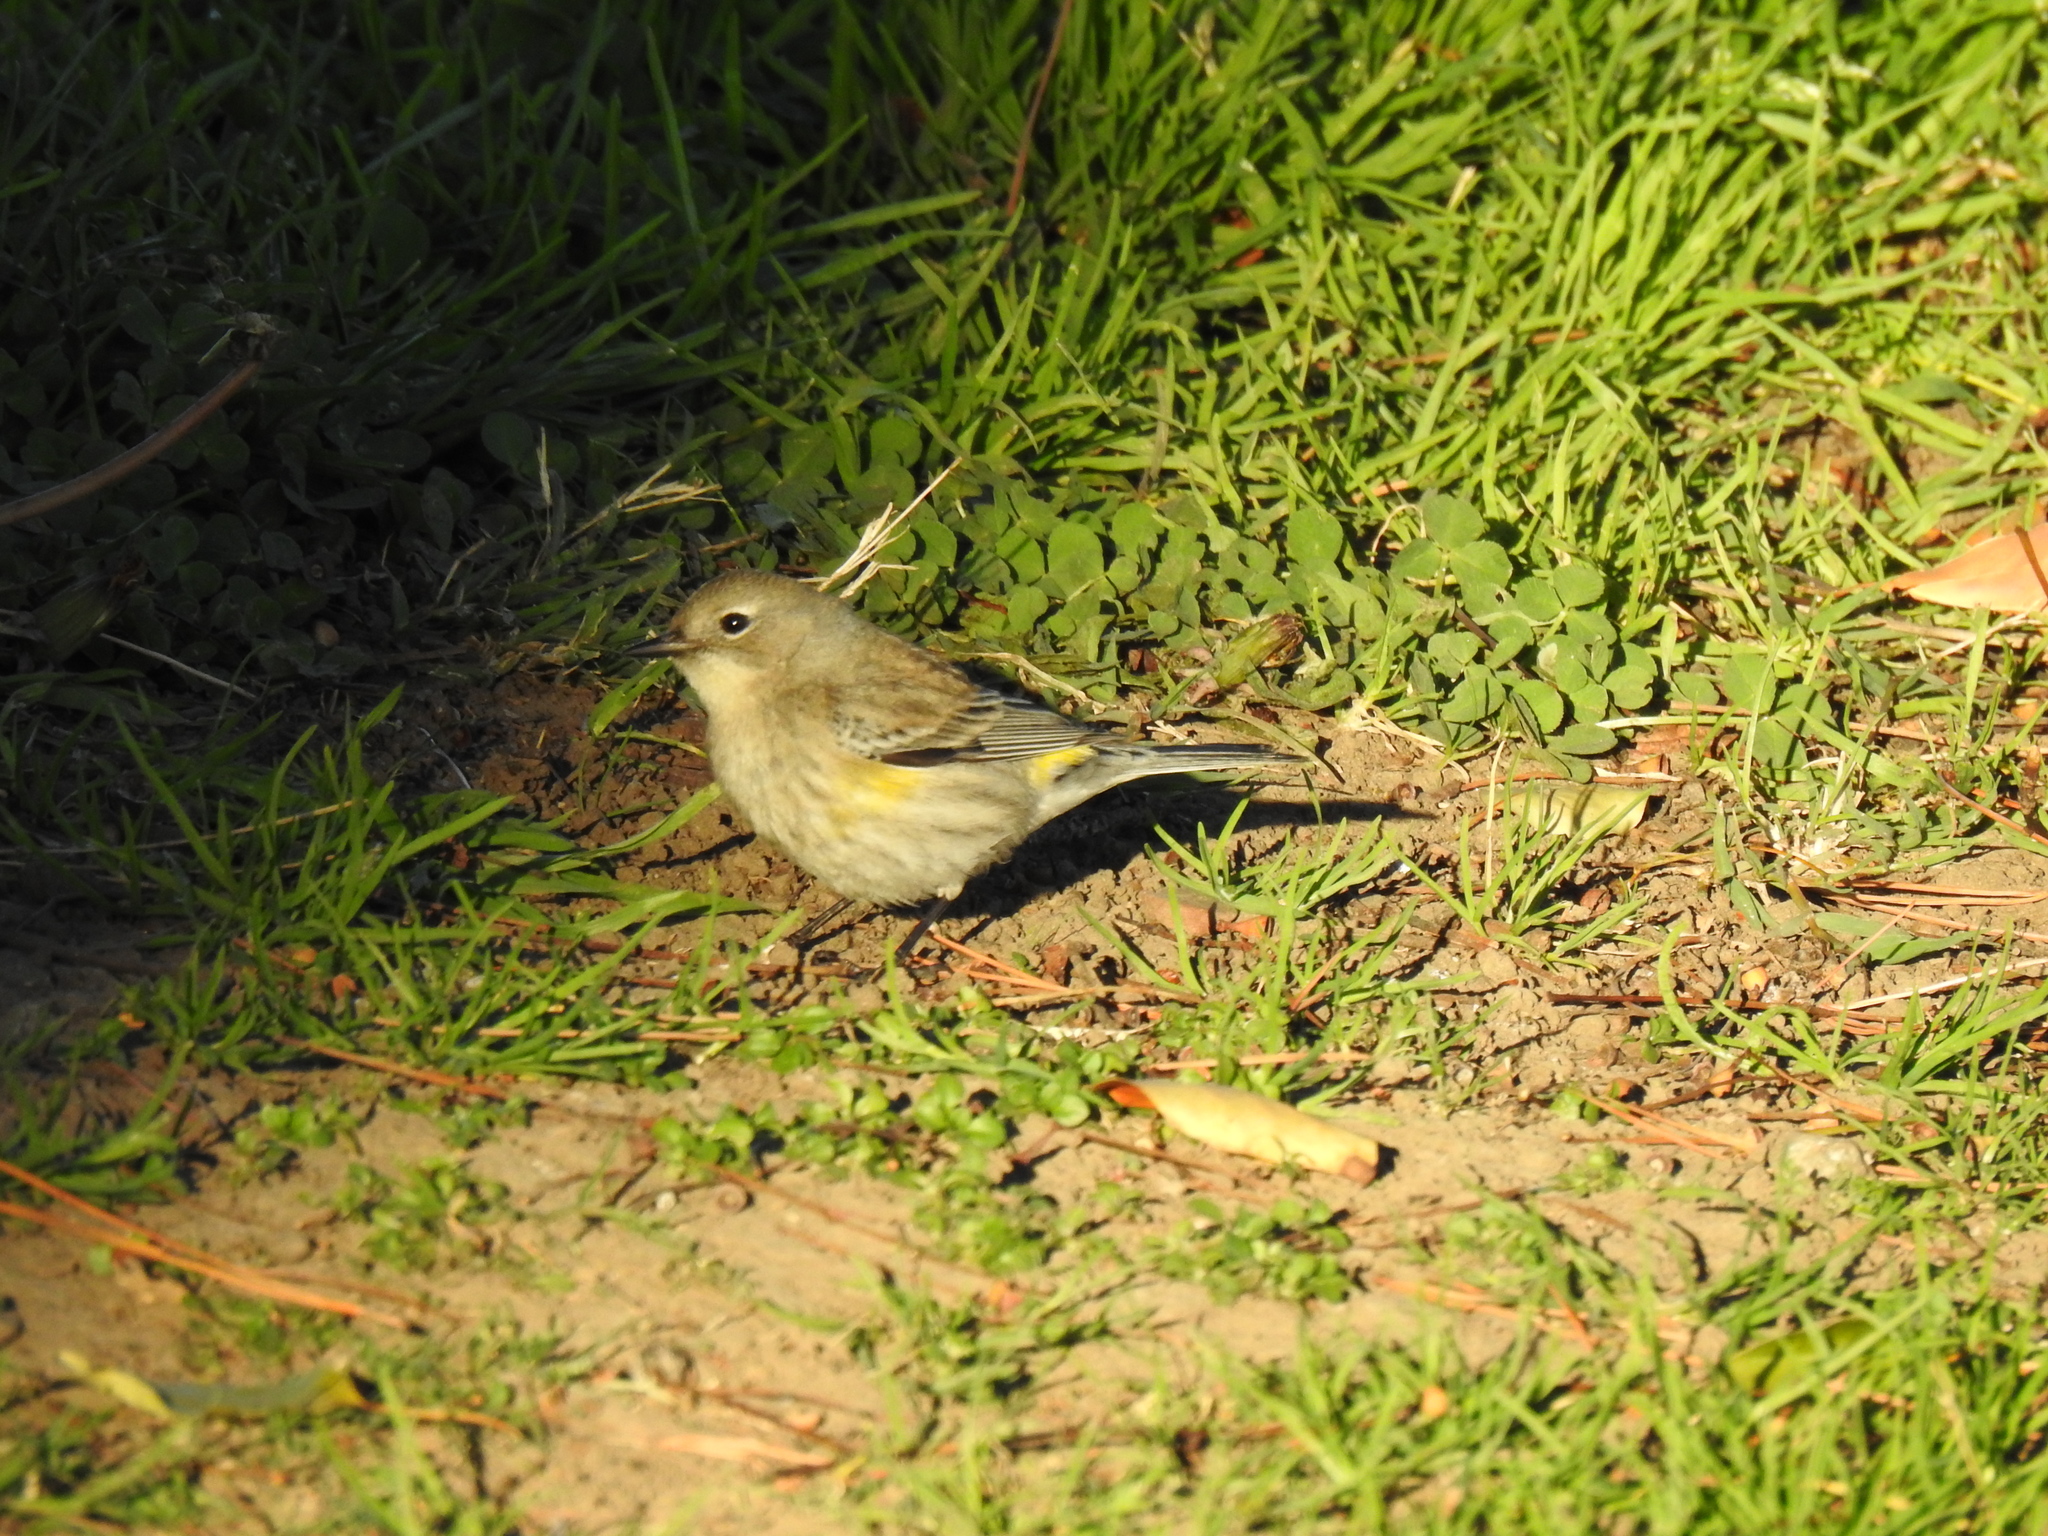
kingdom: Animalia
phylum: Chordata
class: Aves
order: Passeriformes
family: Parulidae
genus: Setophaga
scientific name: Setophaga coronata
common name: Myrtle warbler
